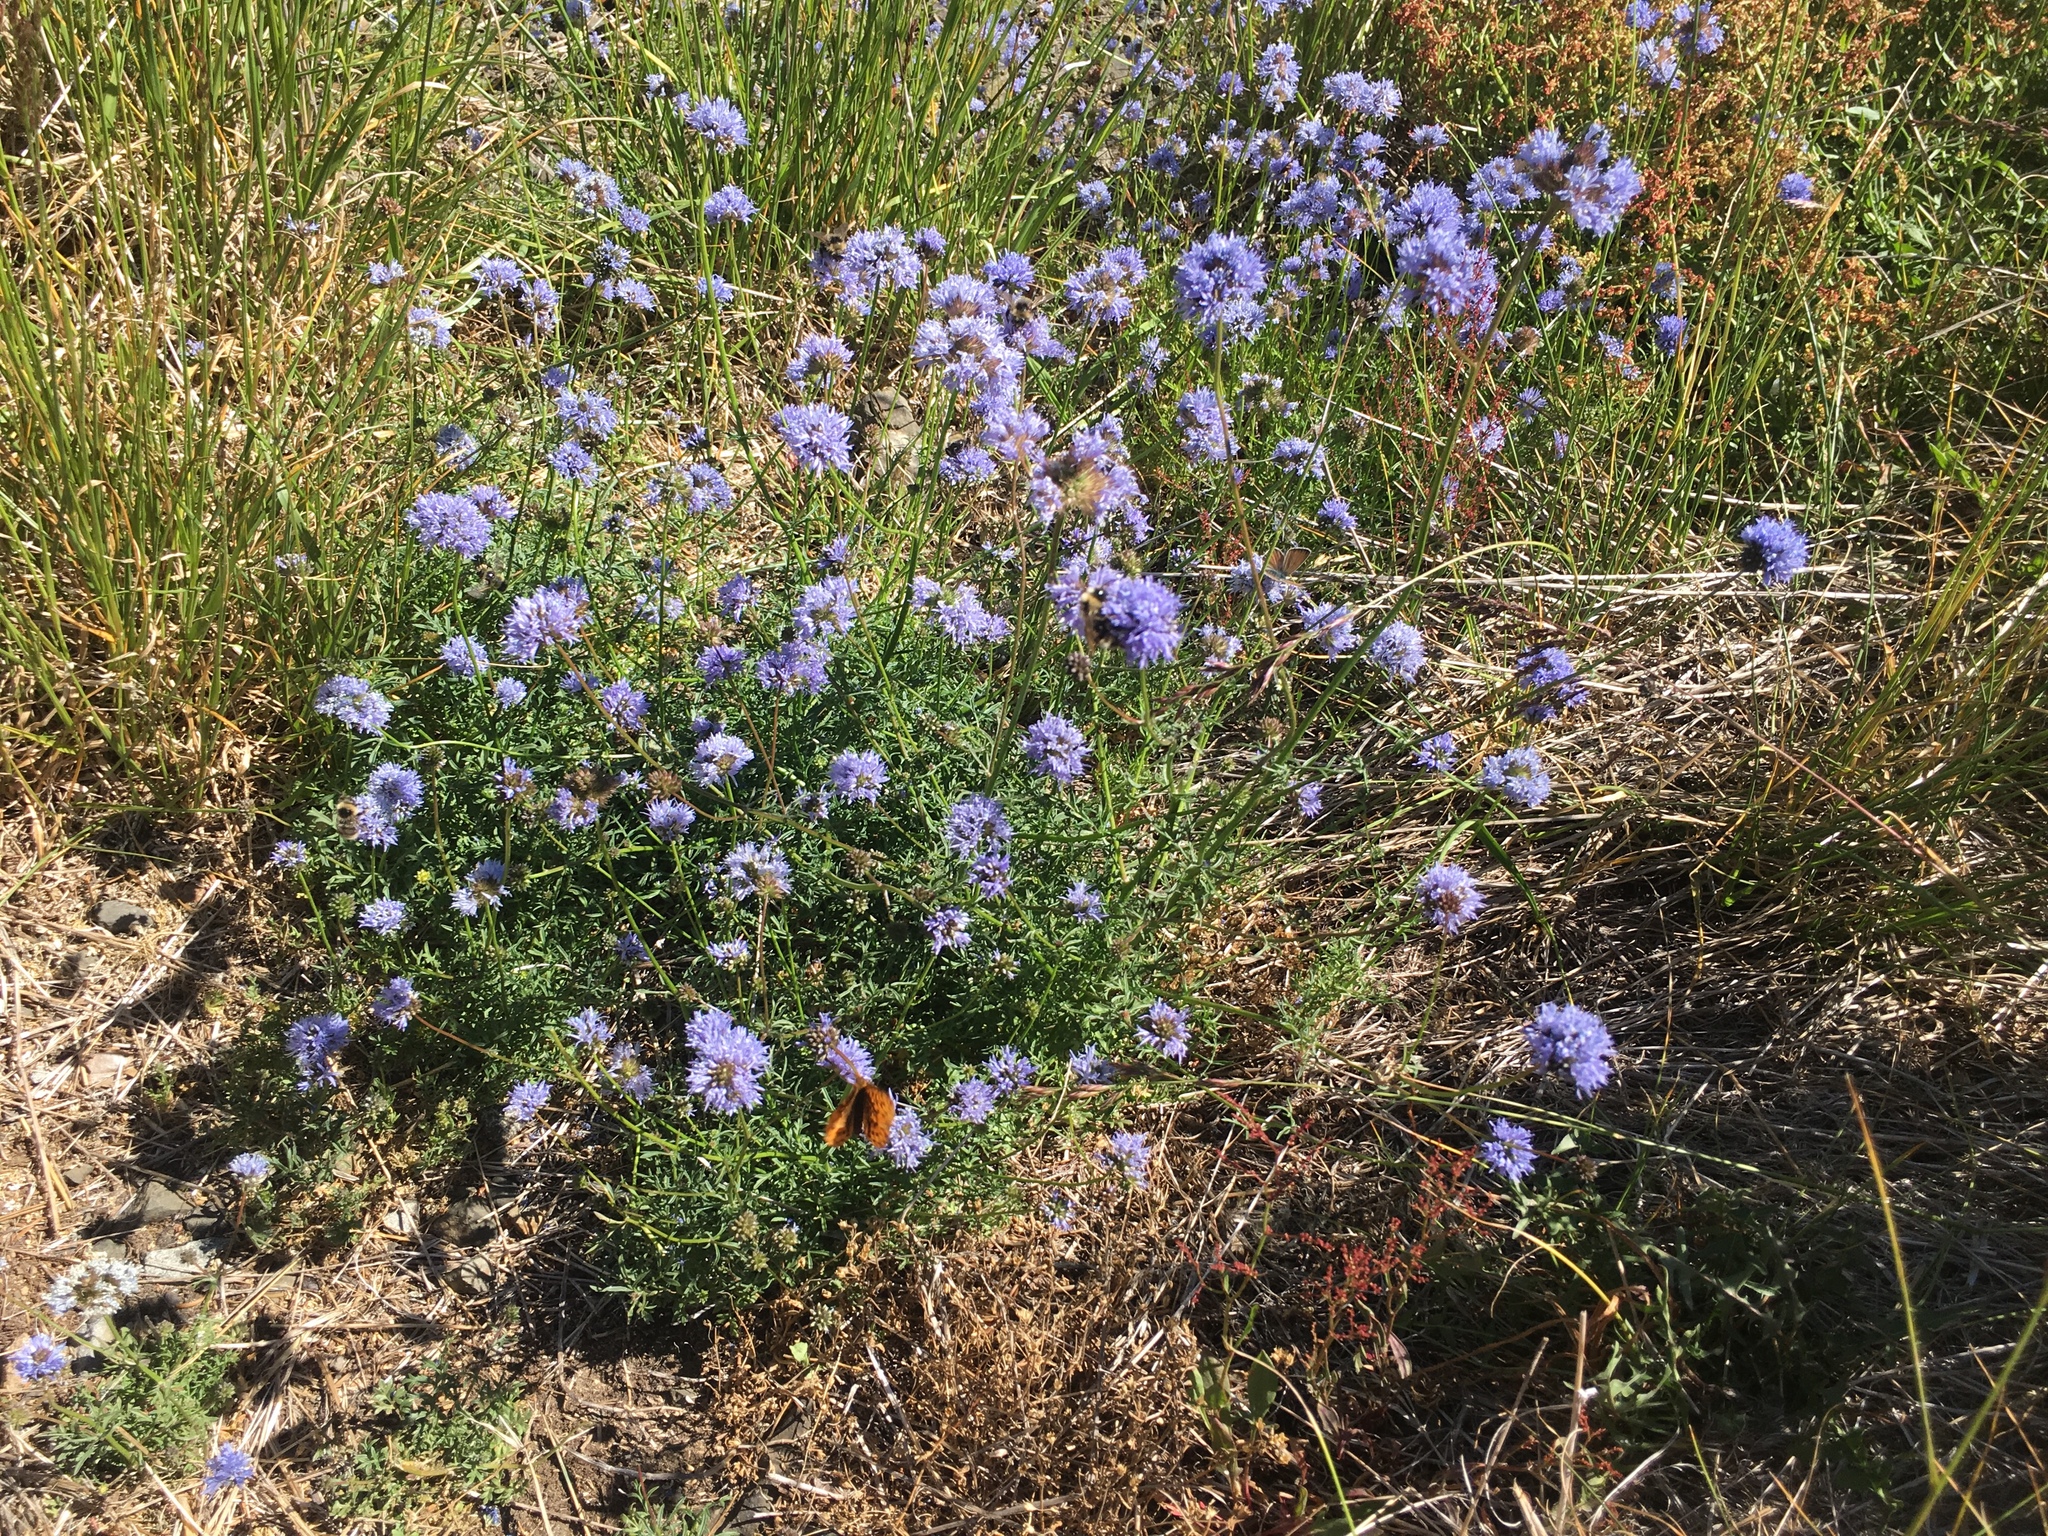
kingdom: Plantae
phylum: Tracheophyta
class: Magnoliopsida
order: Ericales
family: Polemoniaceae
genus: Gilia
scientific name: Gilia capitata
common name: Bluehead gilia
